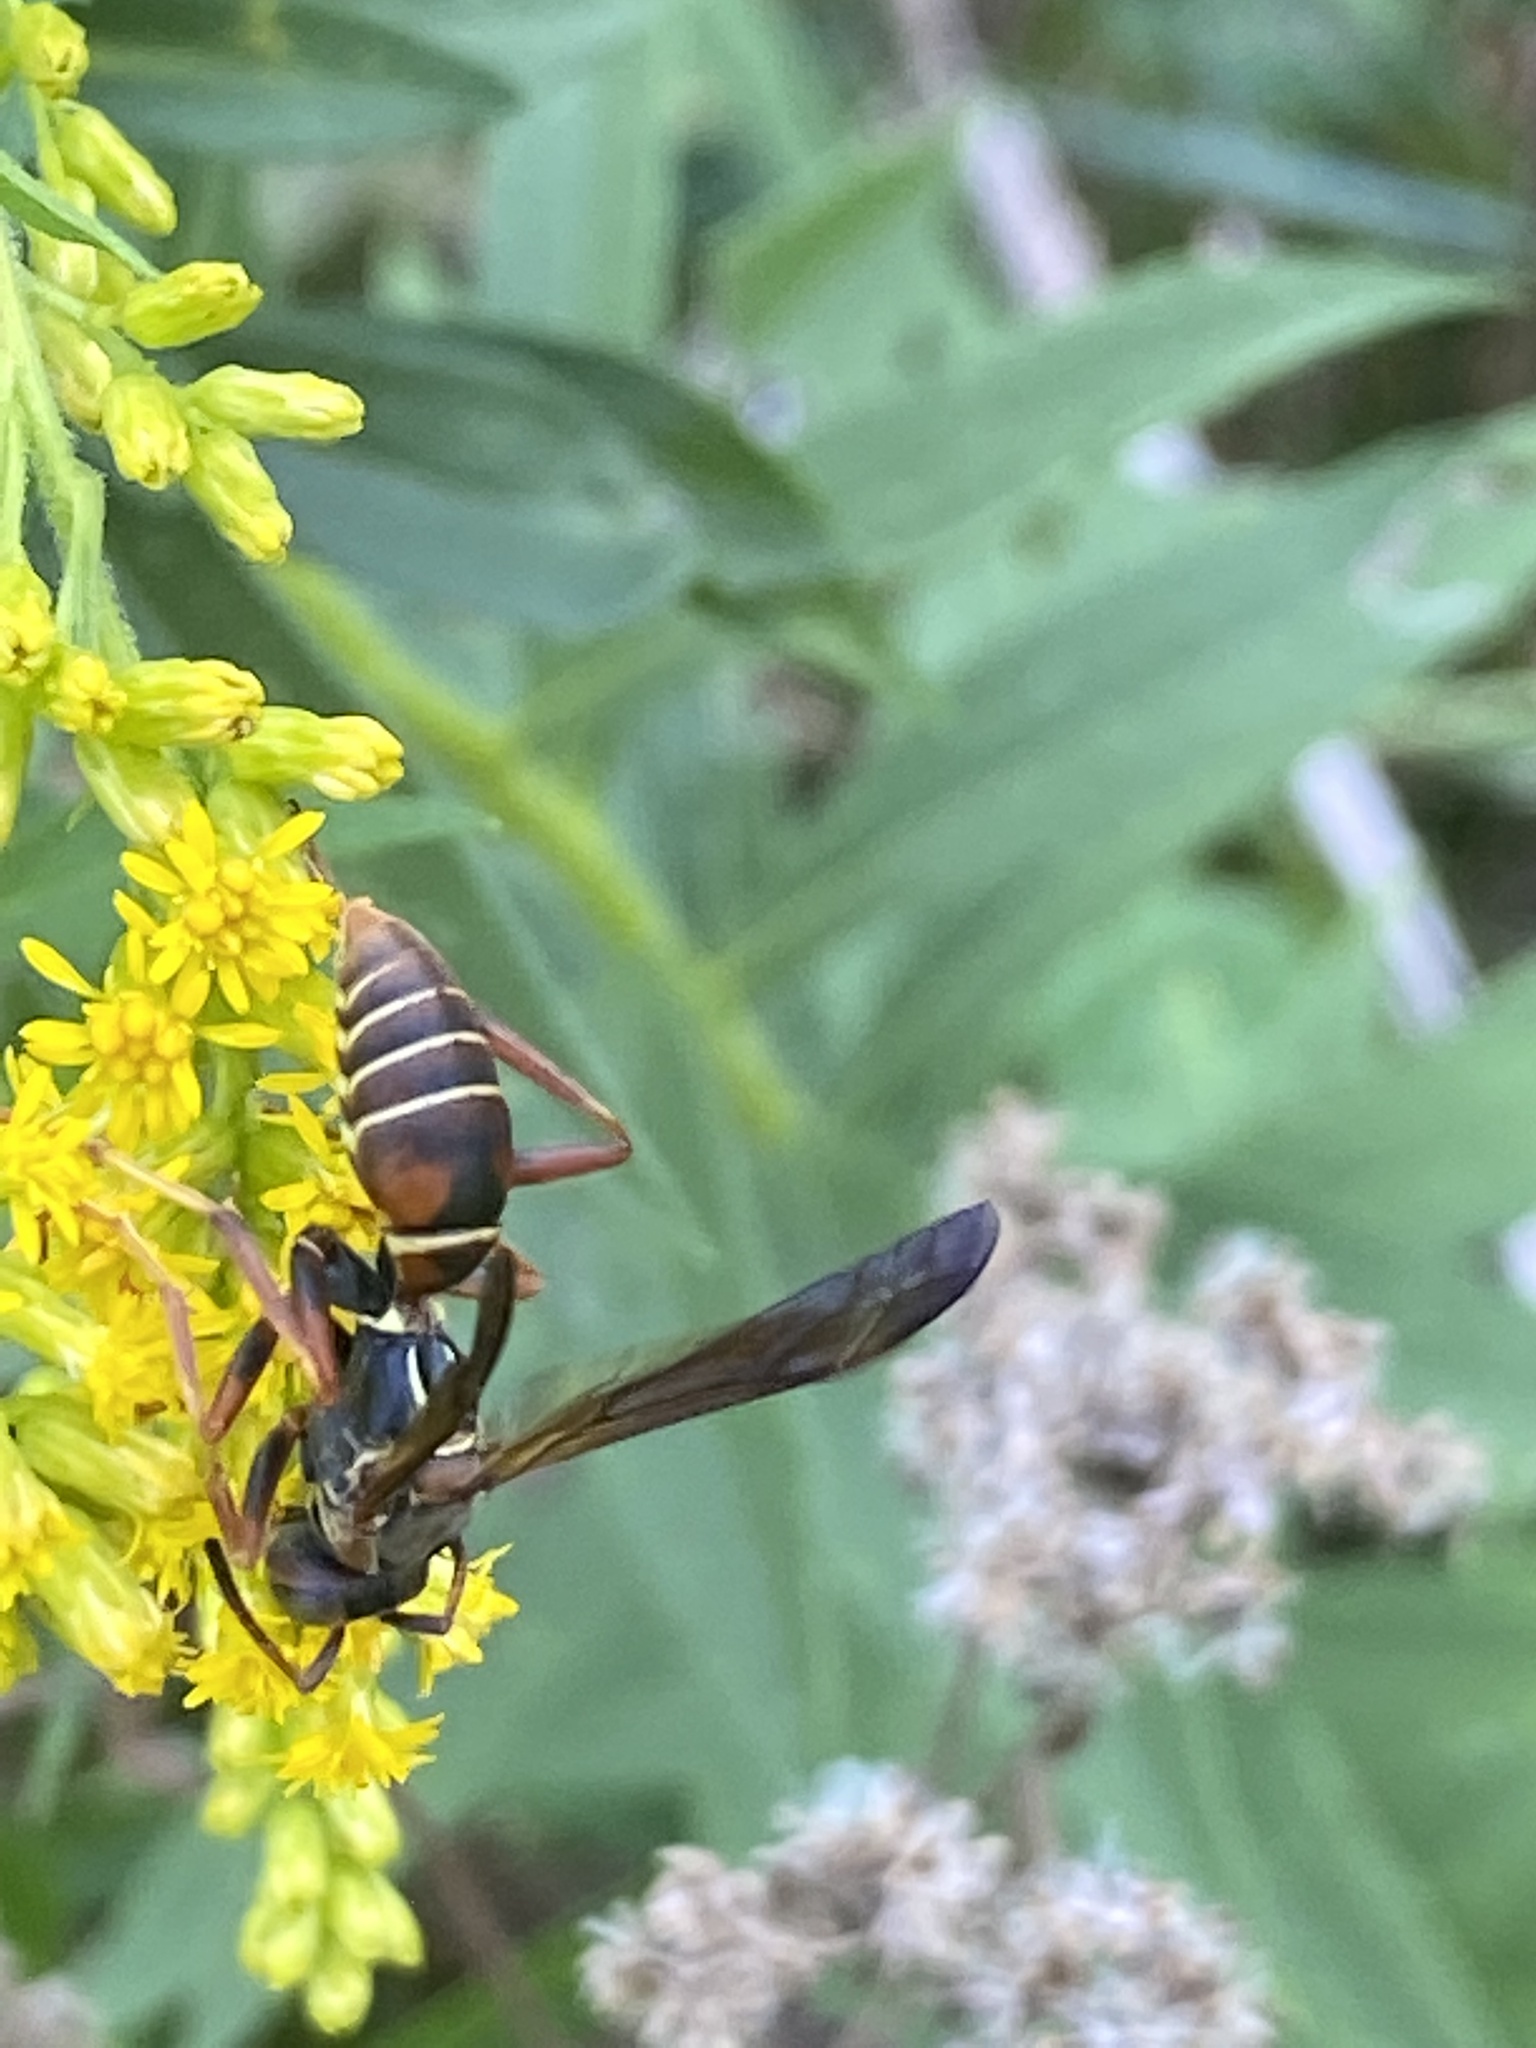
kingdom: Animalia
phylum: Arthropoda
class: Insecta
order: Hymenoptera
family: Eumenidae
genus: Polistes
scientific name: Polistes fuscatus
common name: Dark paper wasp
